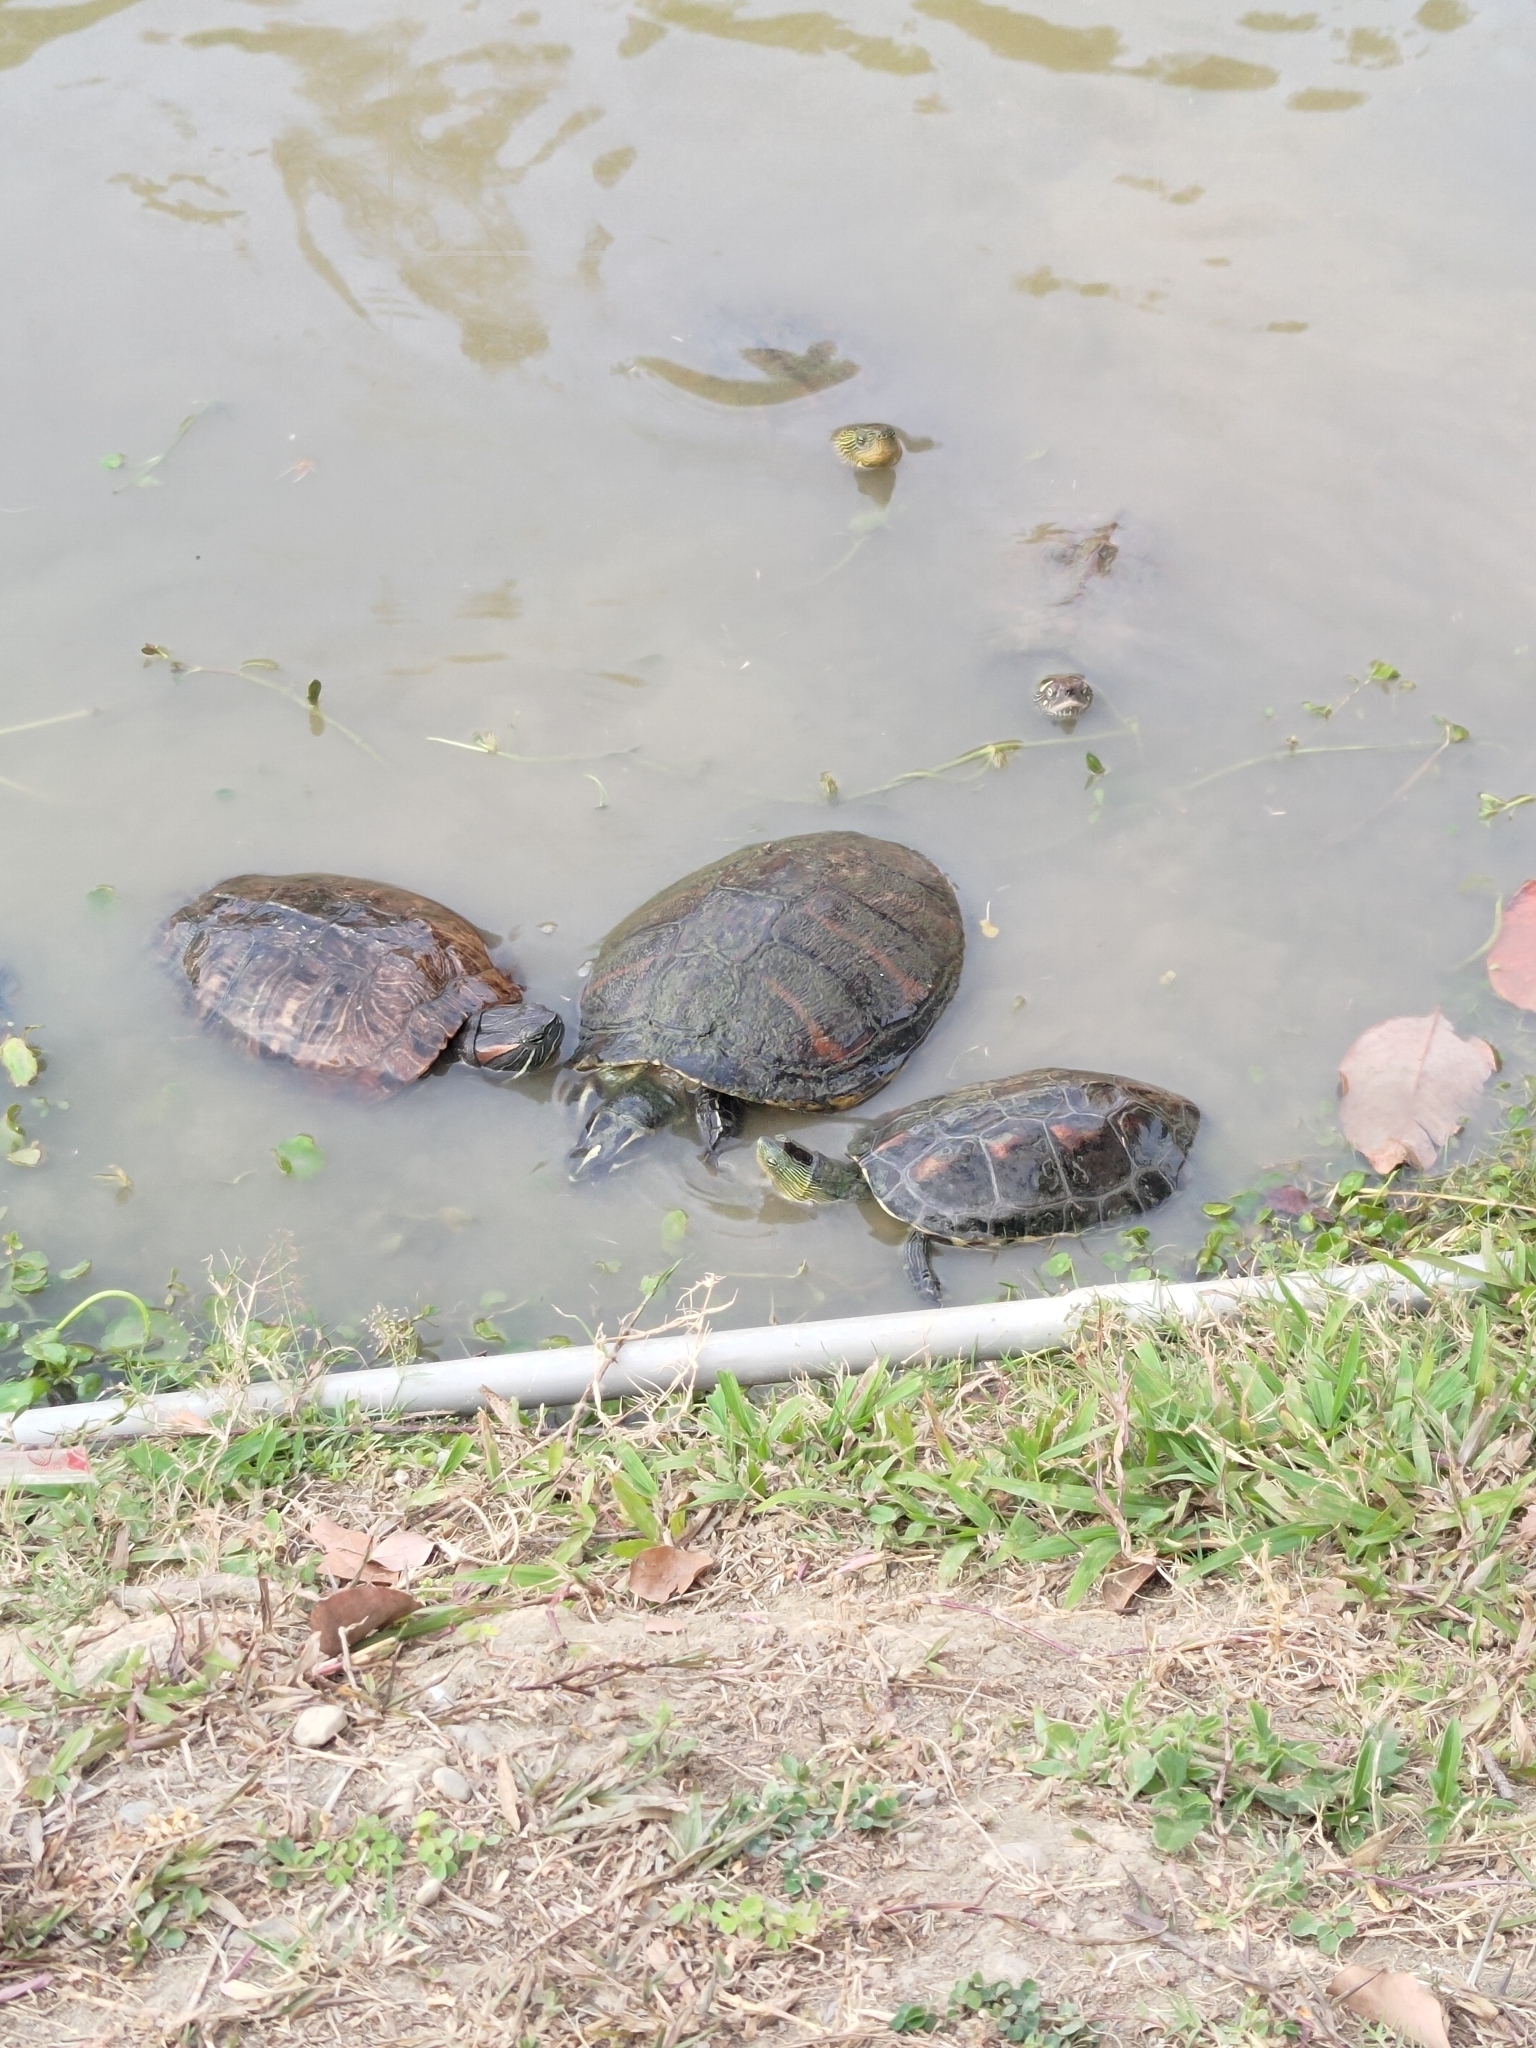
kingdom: Animalia
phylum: Chordata
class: Testudines
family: Geoemydidae
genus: Mauremys
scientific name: Mauremys sinensis
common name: Chinese stripe-necked turtle
